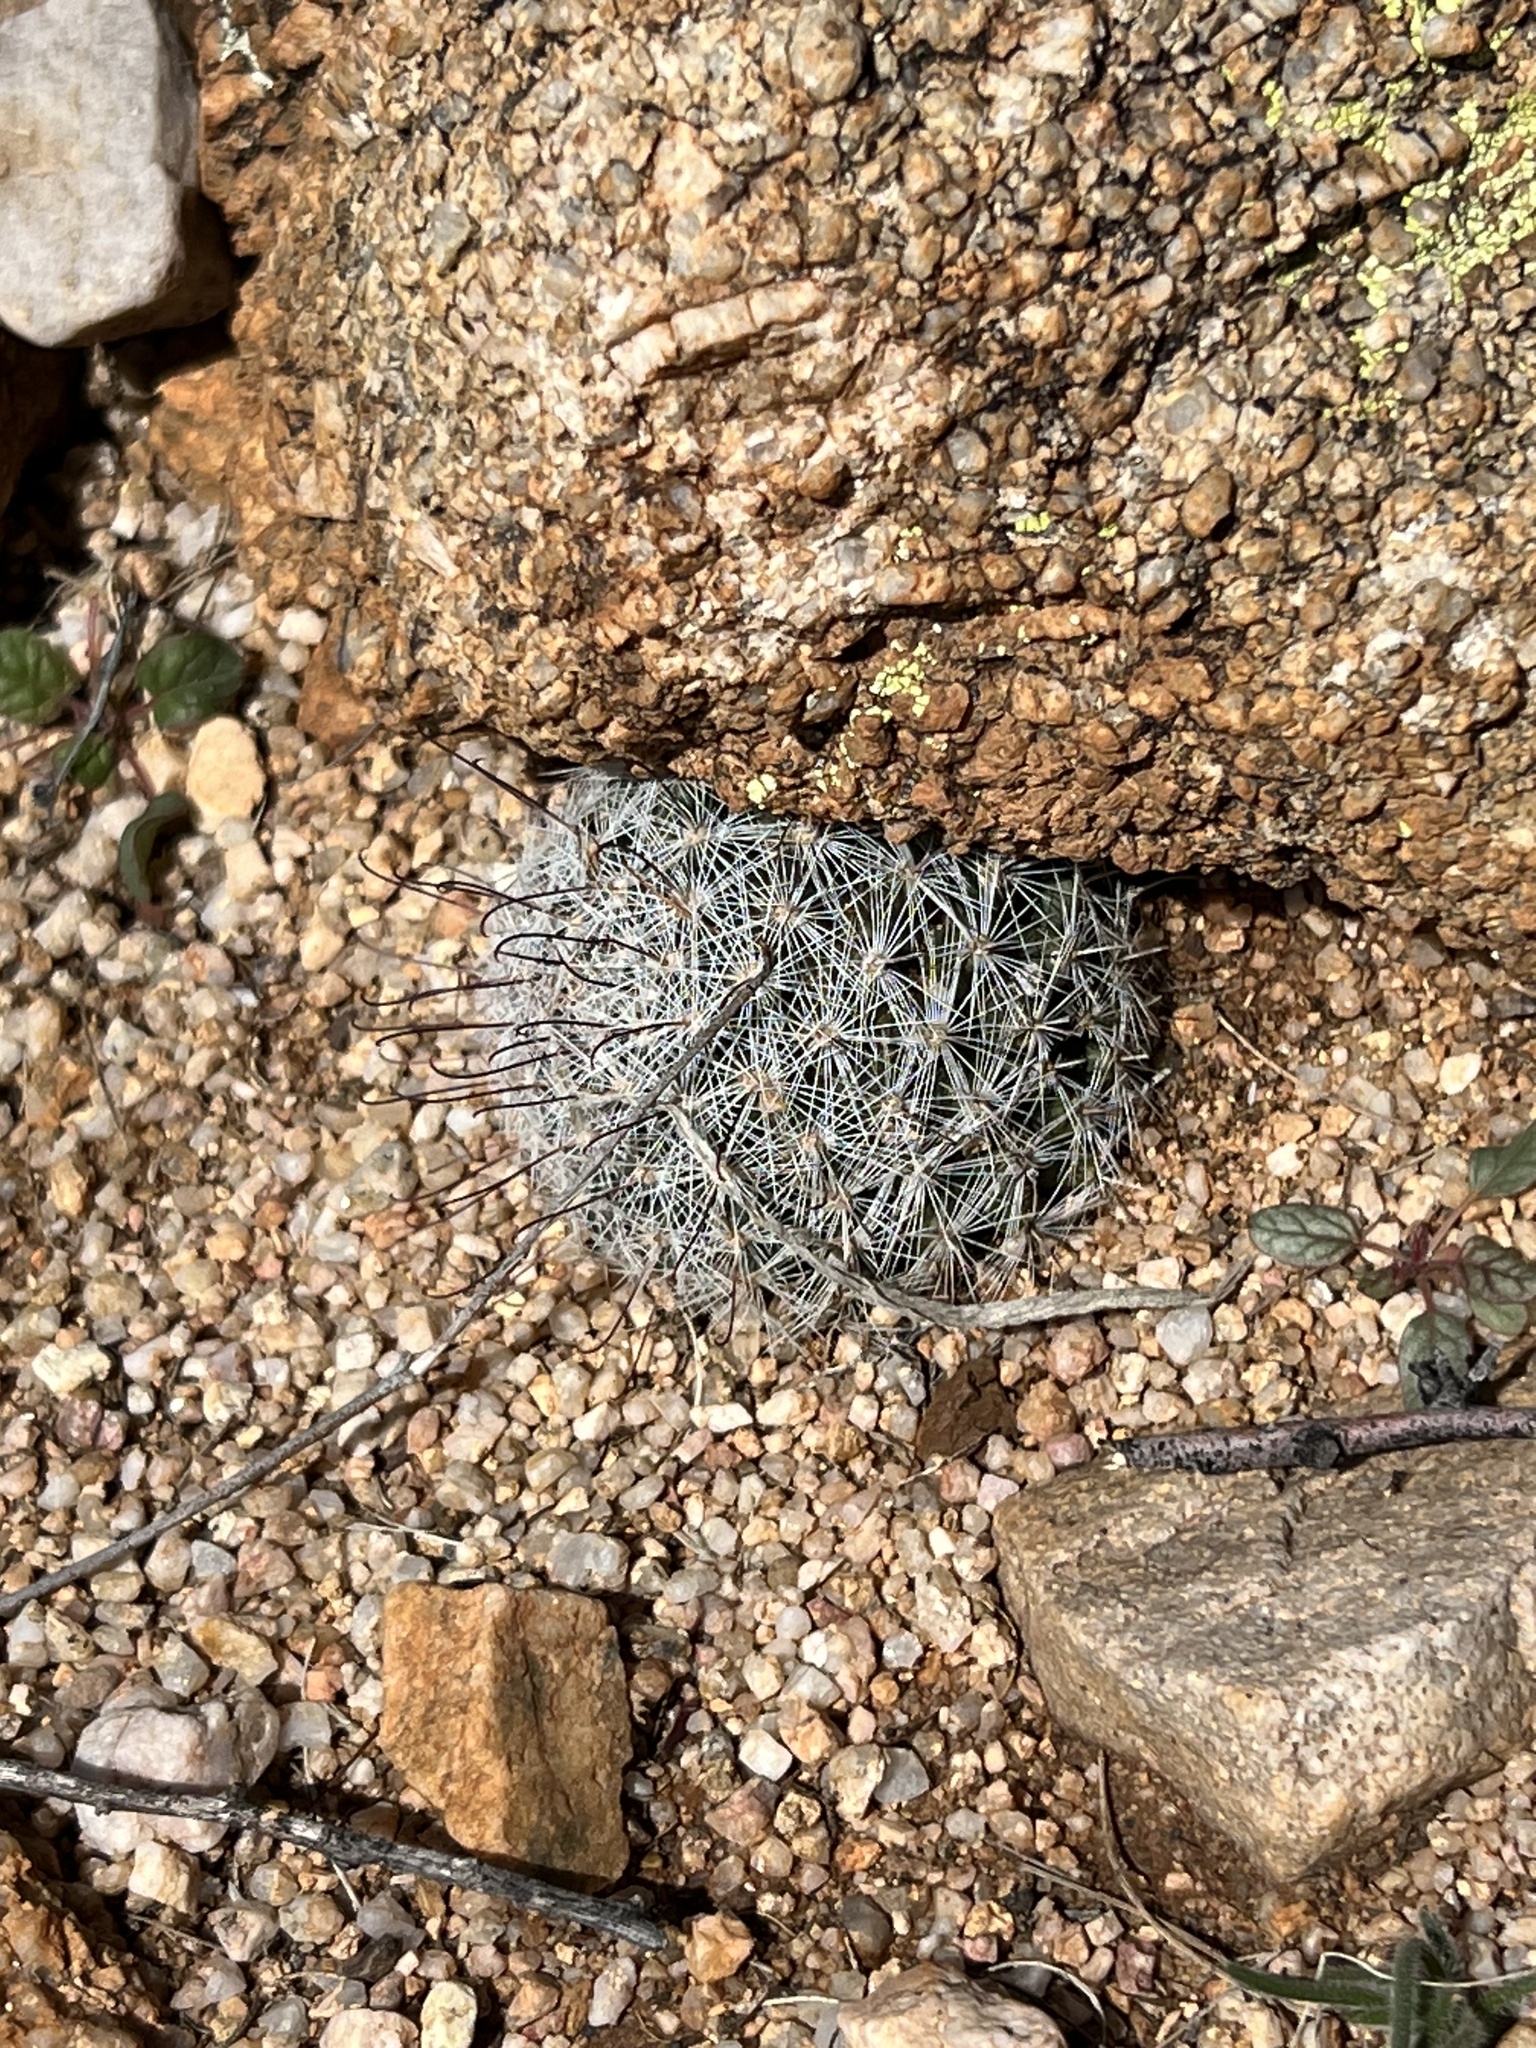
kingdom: Plantae
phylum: Tracheophyta
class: Magnoliopsida
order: Caryophyllales
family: Cactaceae
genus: Cochemiea
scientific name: Cochemiea grahamii
